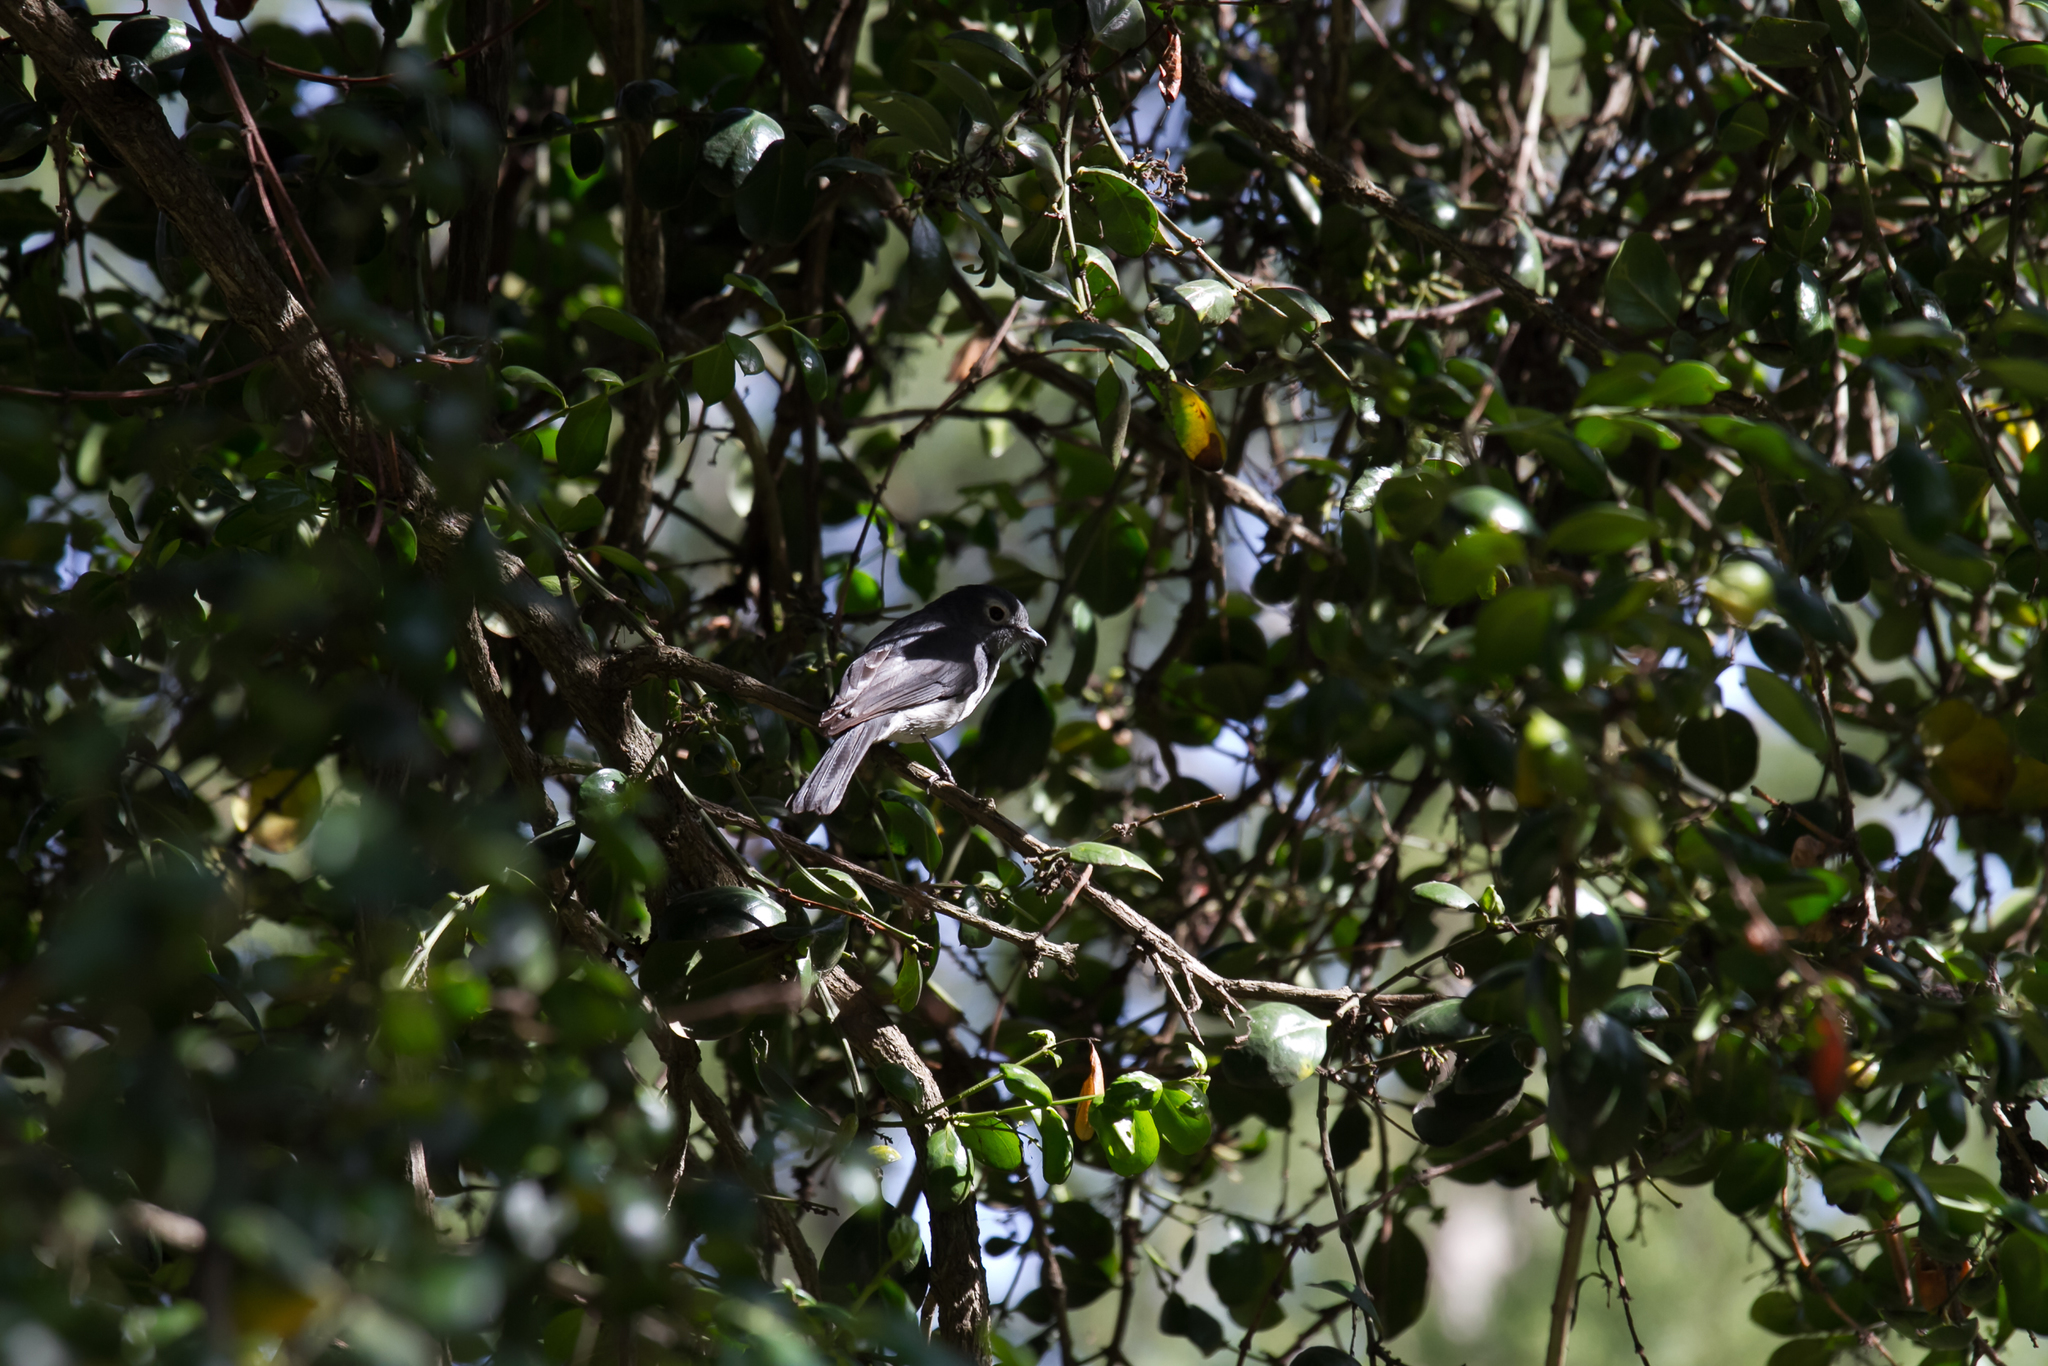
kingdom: Animalia
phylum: Chordata
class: Aves
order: Passeriformes
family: Muscicapidae
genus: Dioptrornis
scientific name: Dioptrornis fischeri
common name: White-eyed slaty flycatcher
